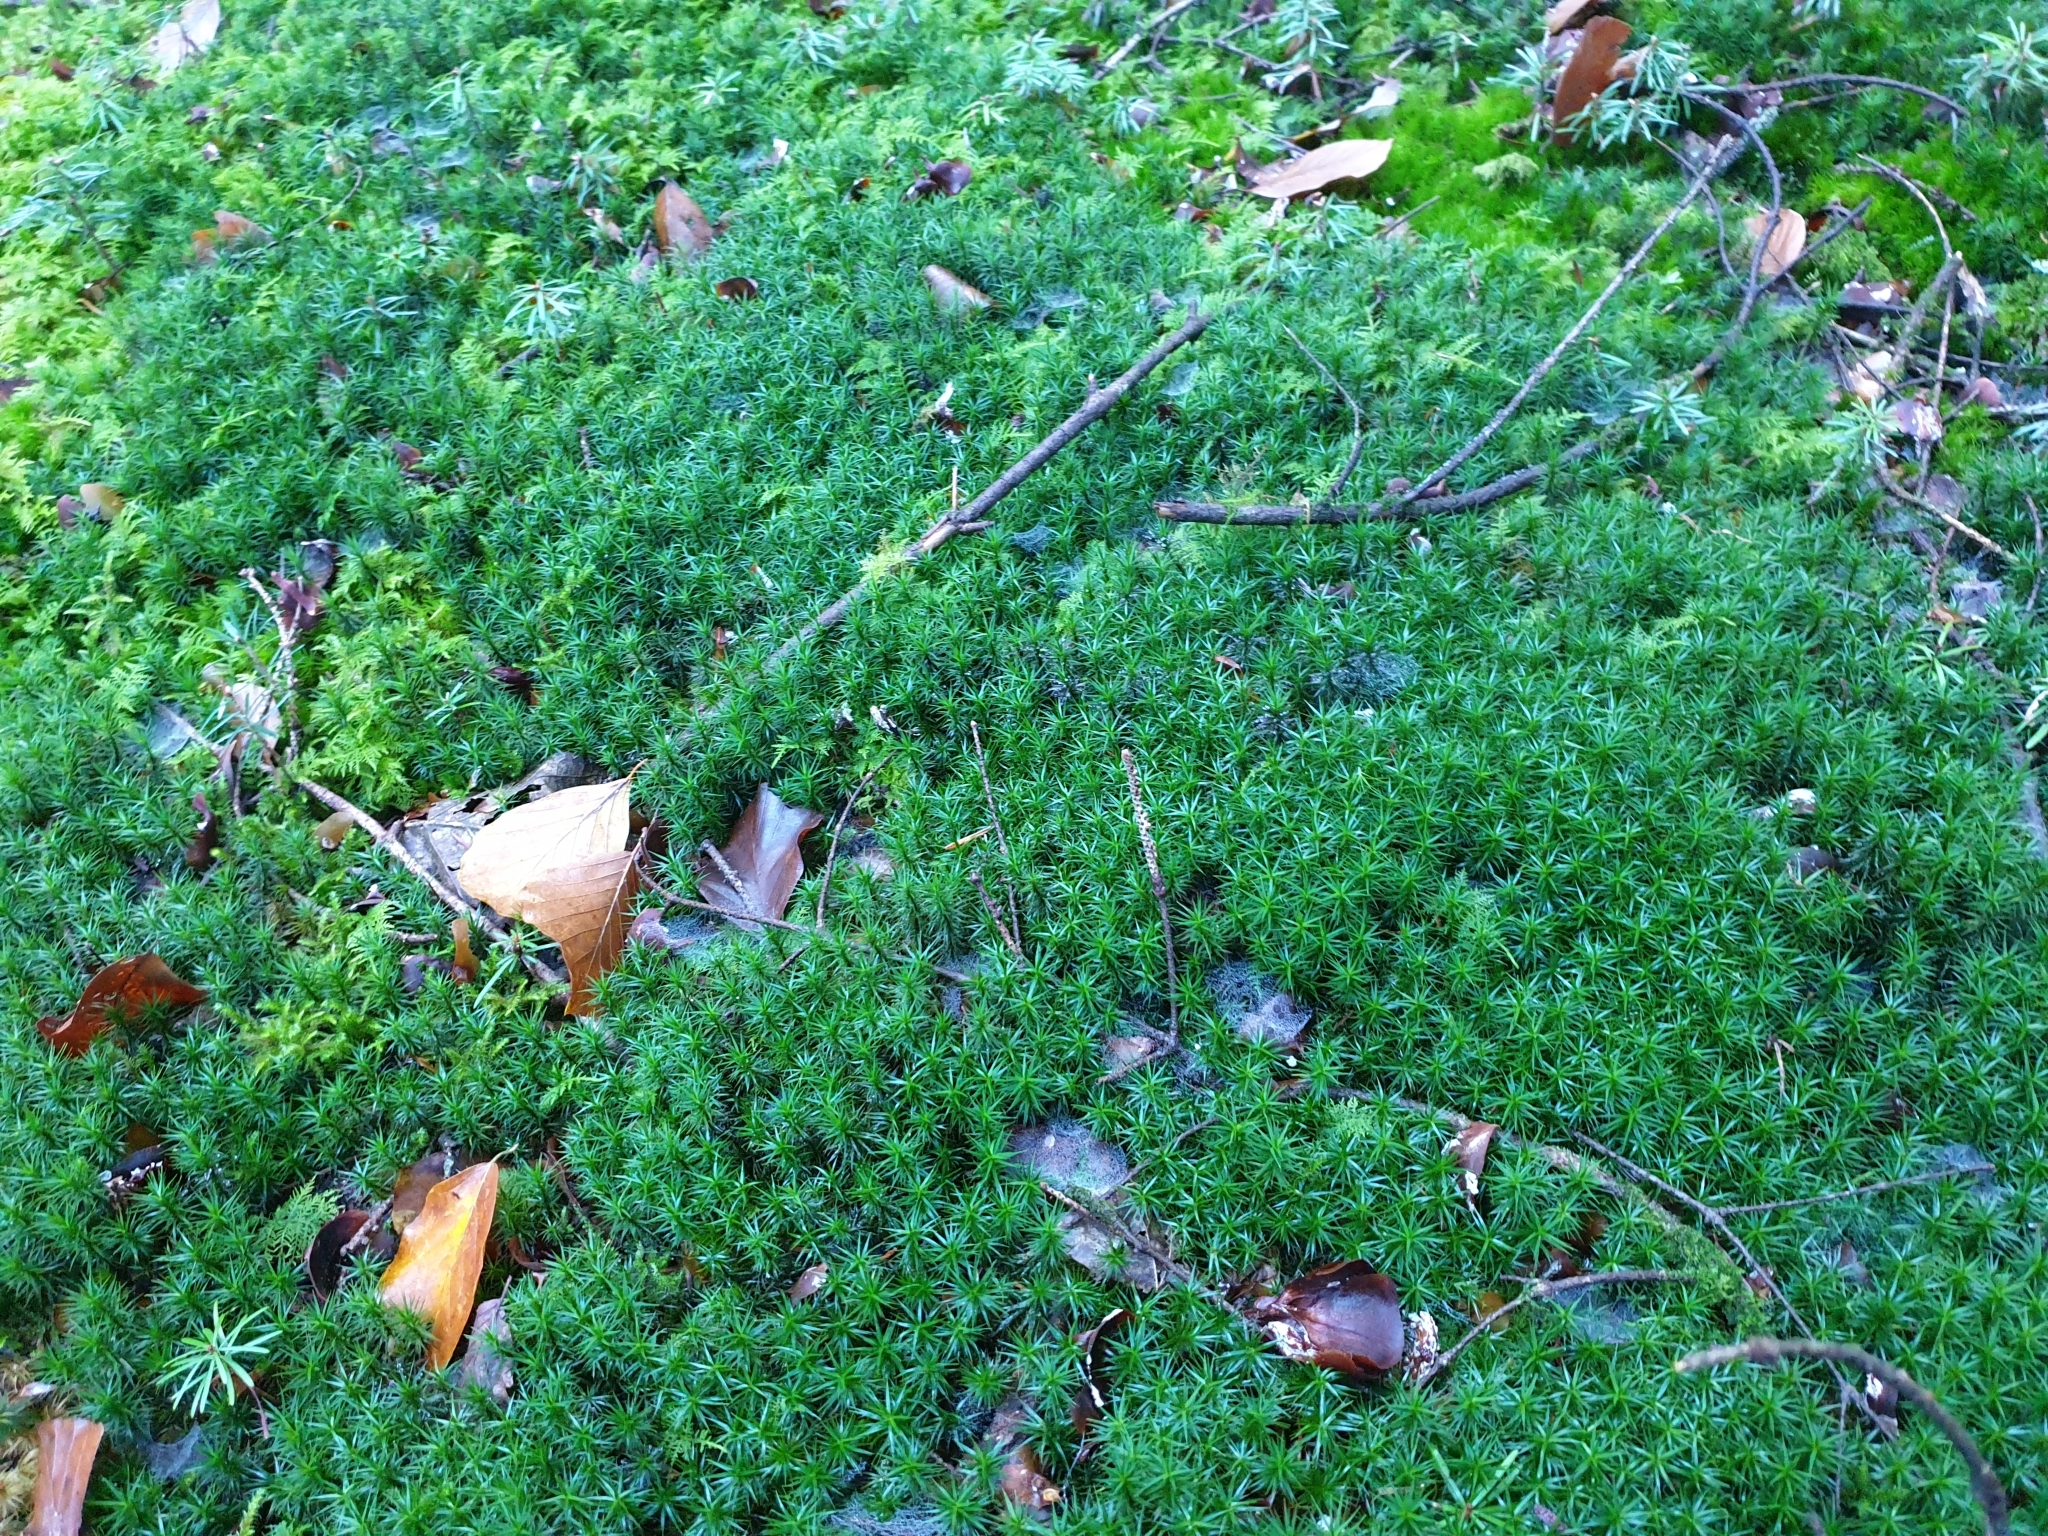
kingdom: Plantae
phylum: Bryophyta
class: Polytrichopsida
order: Polytrichales
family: Polytrichaceae
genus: Polytrichum
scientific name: Polytrichum formosum
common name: Bank haircap moss
